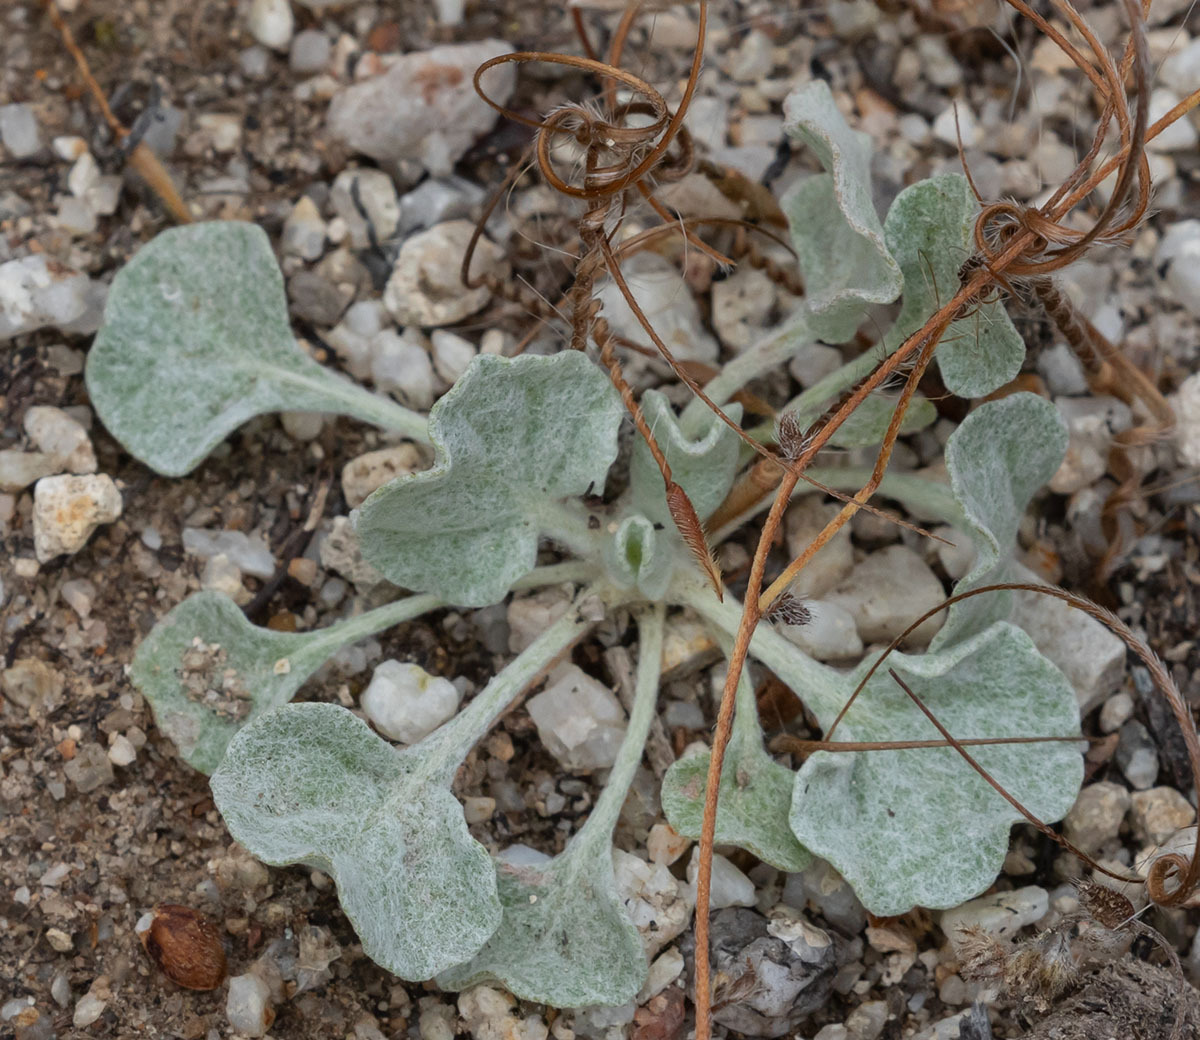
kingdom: Plantae
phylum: Tracheophyta
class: Magnoliopsida
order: Caryophyllales
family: Polygonaceae
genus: Eriogonum
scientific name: Eriogonum elegans
